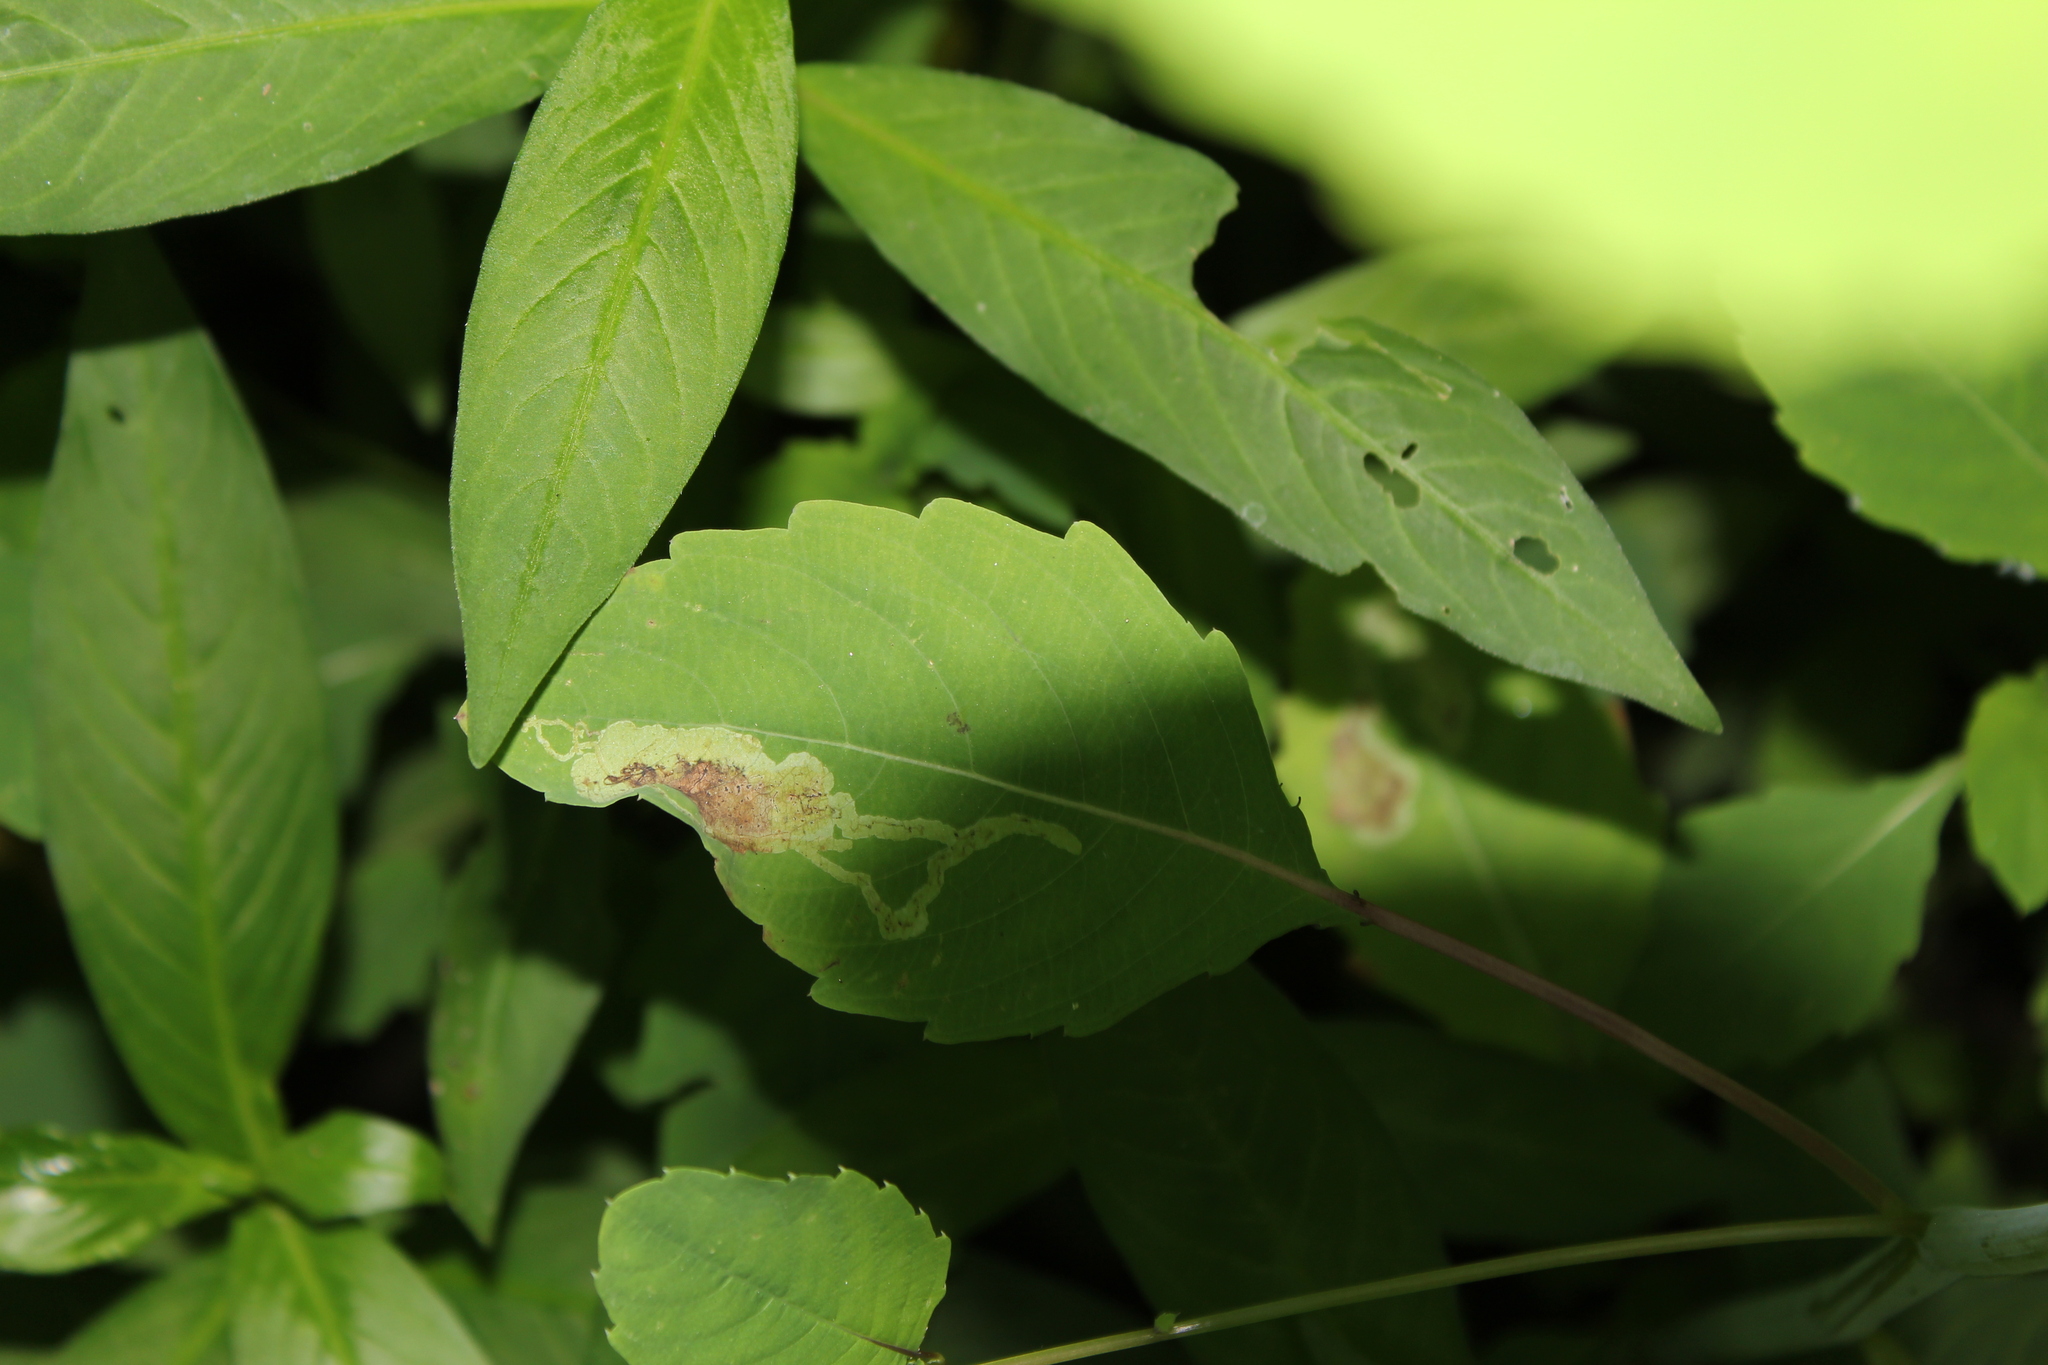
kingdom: Animalia
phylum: Arthropoda
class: Insecta
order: Diptera
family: Agromyzidae
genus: Phytoliriomyza
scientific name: Phytoliriomyza melampyga
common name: Jewelweed leaf-miner fly
